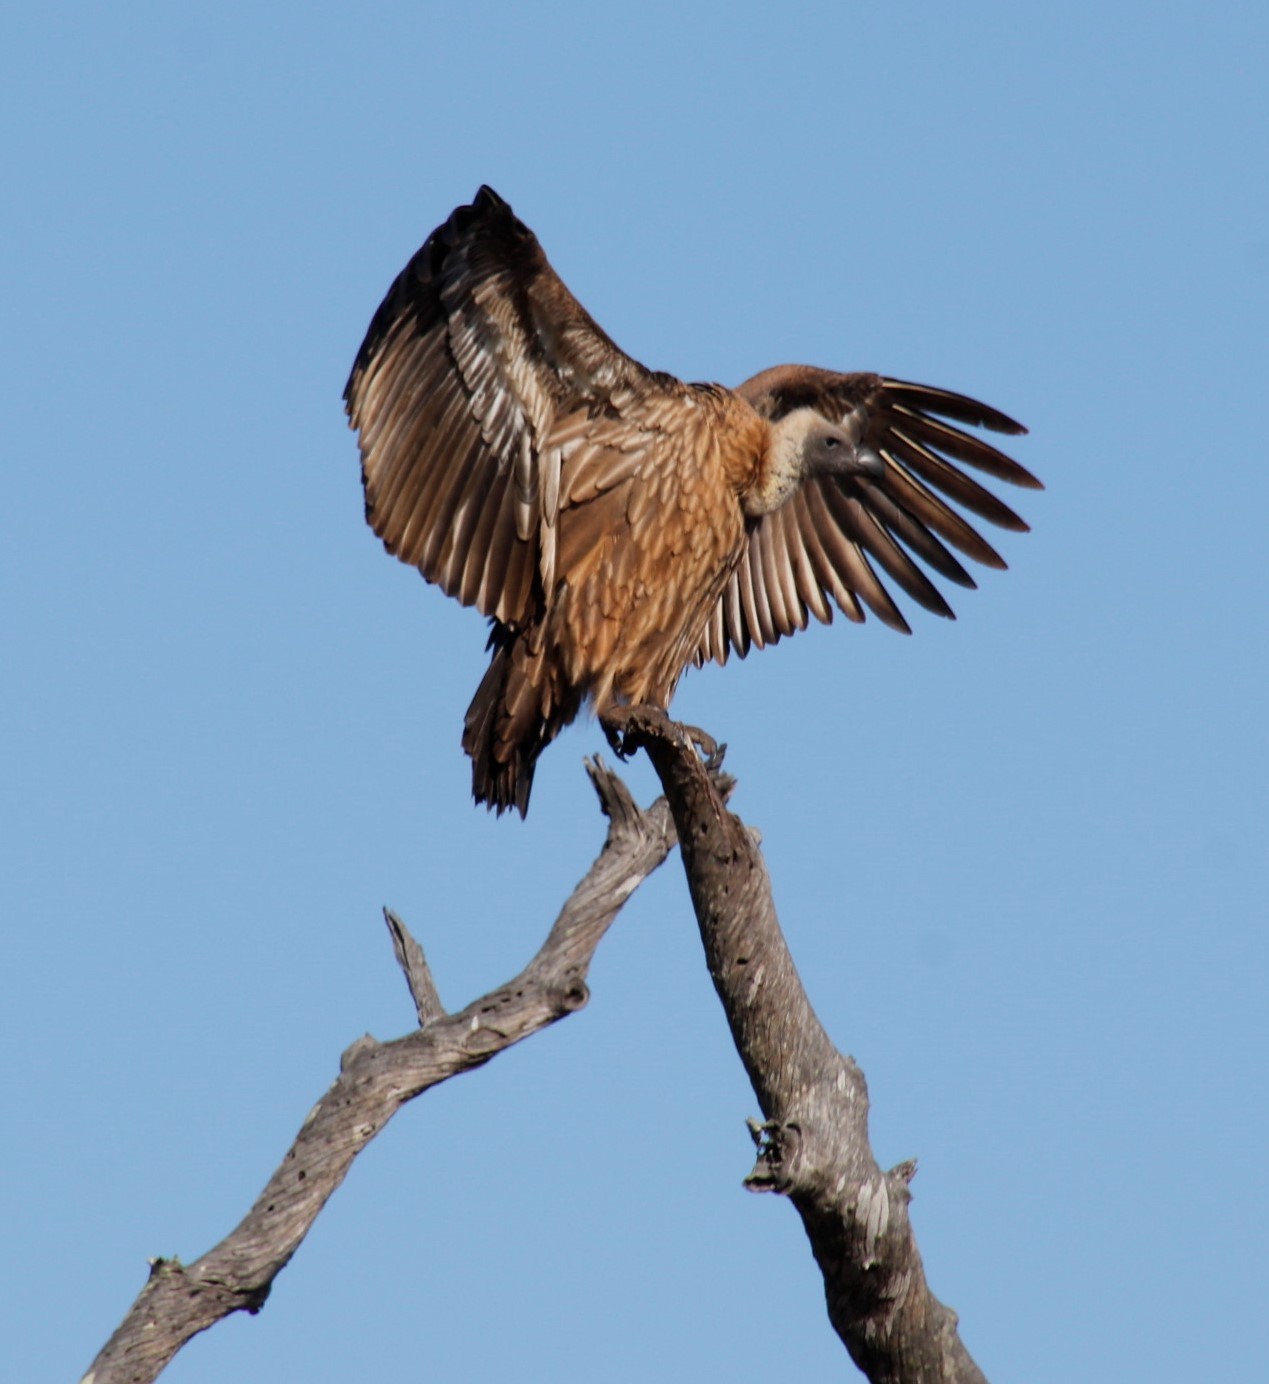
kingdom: Animalia
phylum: Chordata
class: Aves
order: Accipitriformes
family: Accipitridae
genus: Gyps
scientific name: Gyps africanus
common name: White-backed vulture
